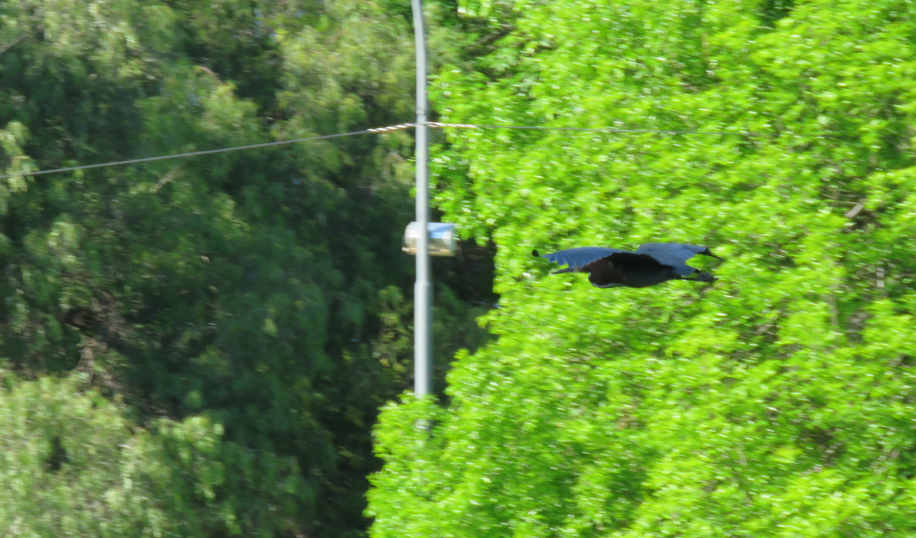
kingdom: Animalia
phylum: Chordata
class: Aves
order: Pelecaniformes
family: Ardeidae
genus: Tigrisoma
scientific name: Tigrisoma lineatum
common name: Rufescent tiger-heron
